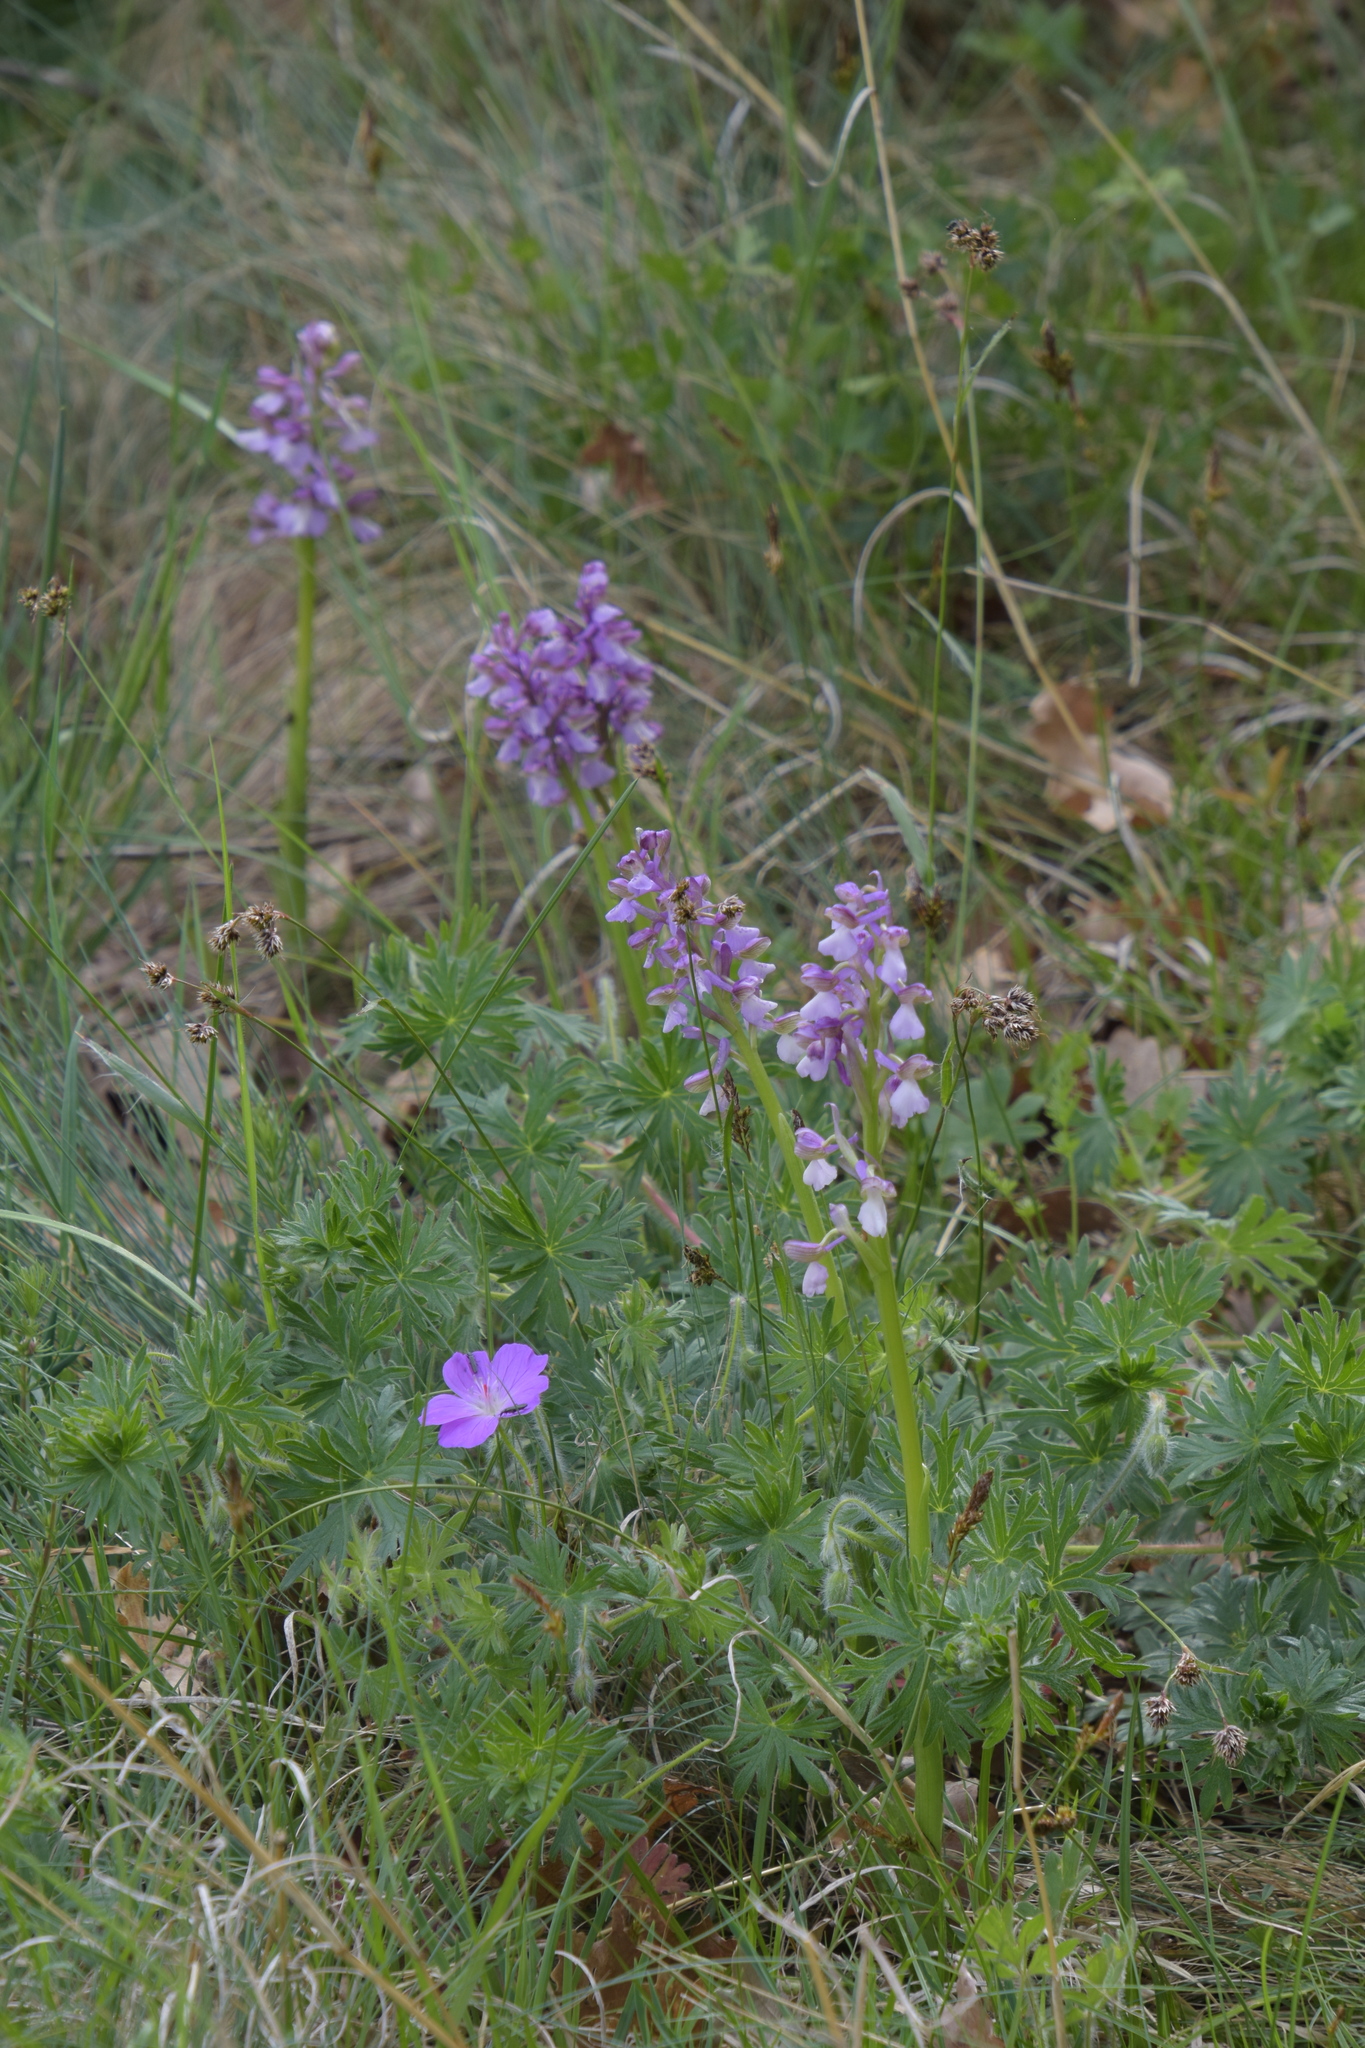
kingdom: Plantae
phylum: Tracheophyta
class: Liliopsida
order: Asparagales
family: Orchidaceae
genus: Anacamptis
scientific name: Anacamptis morio
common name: Green-winged orchid
